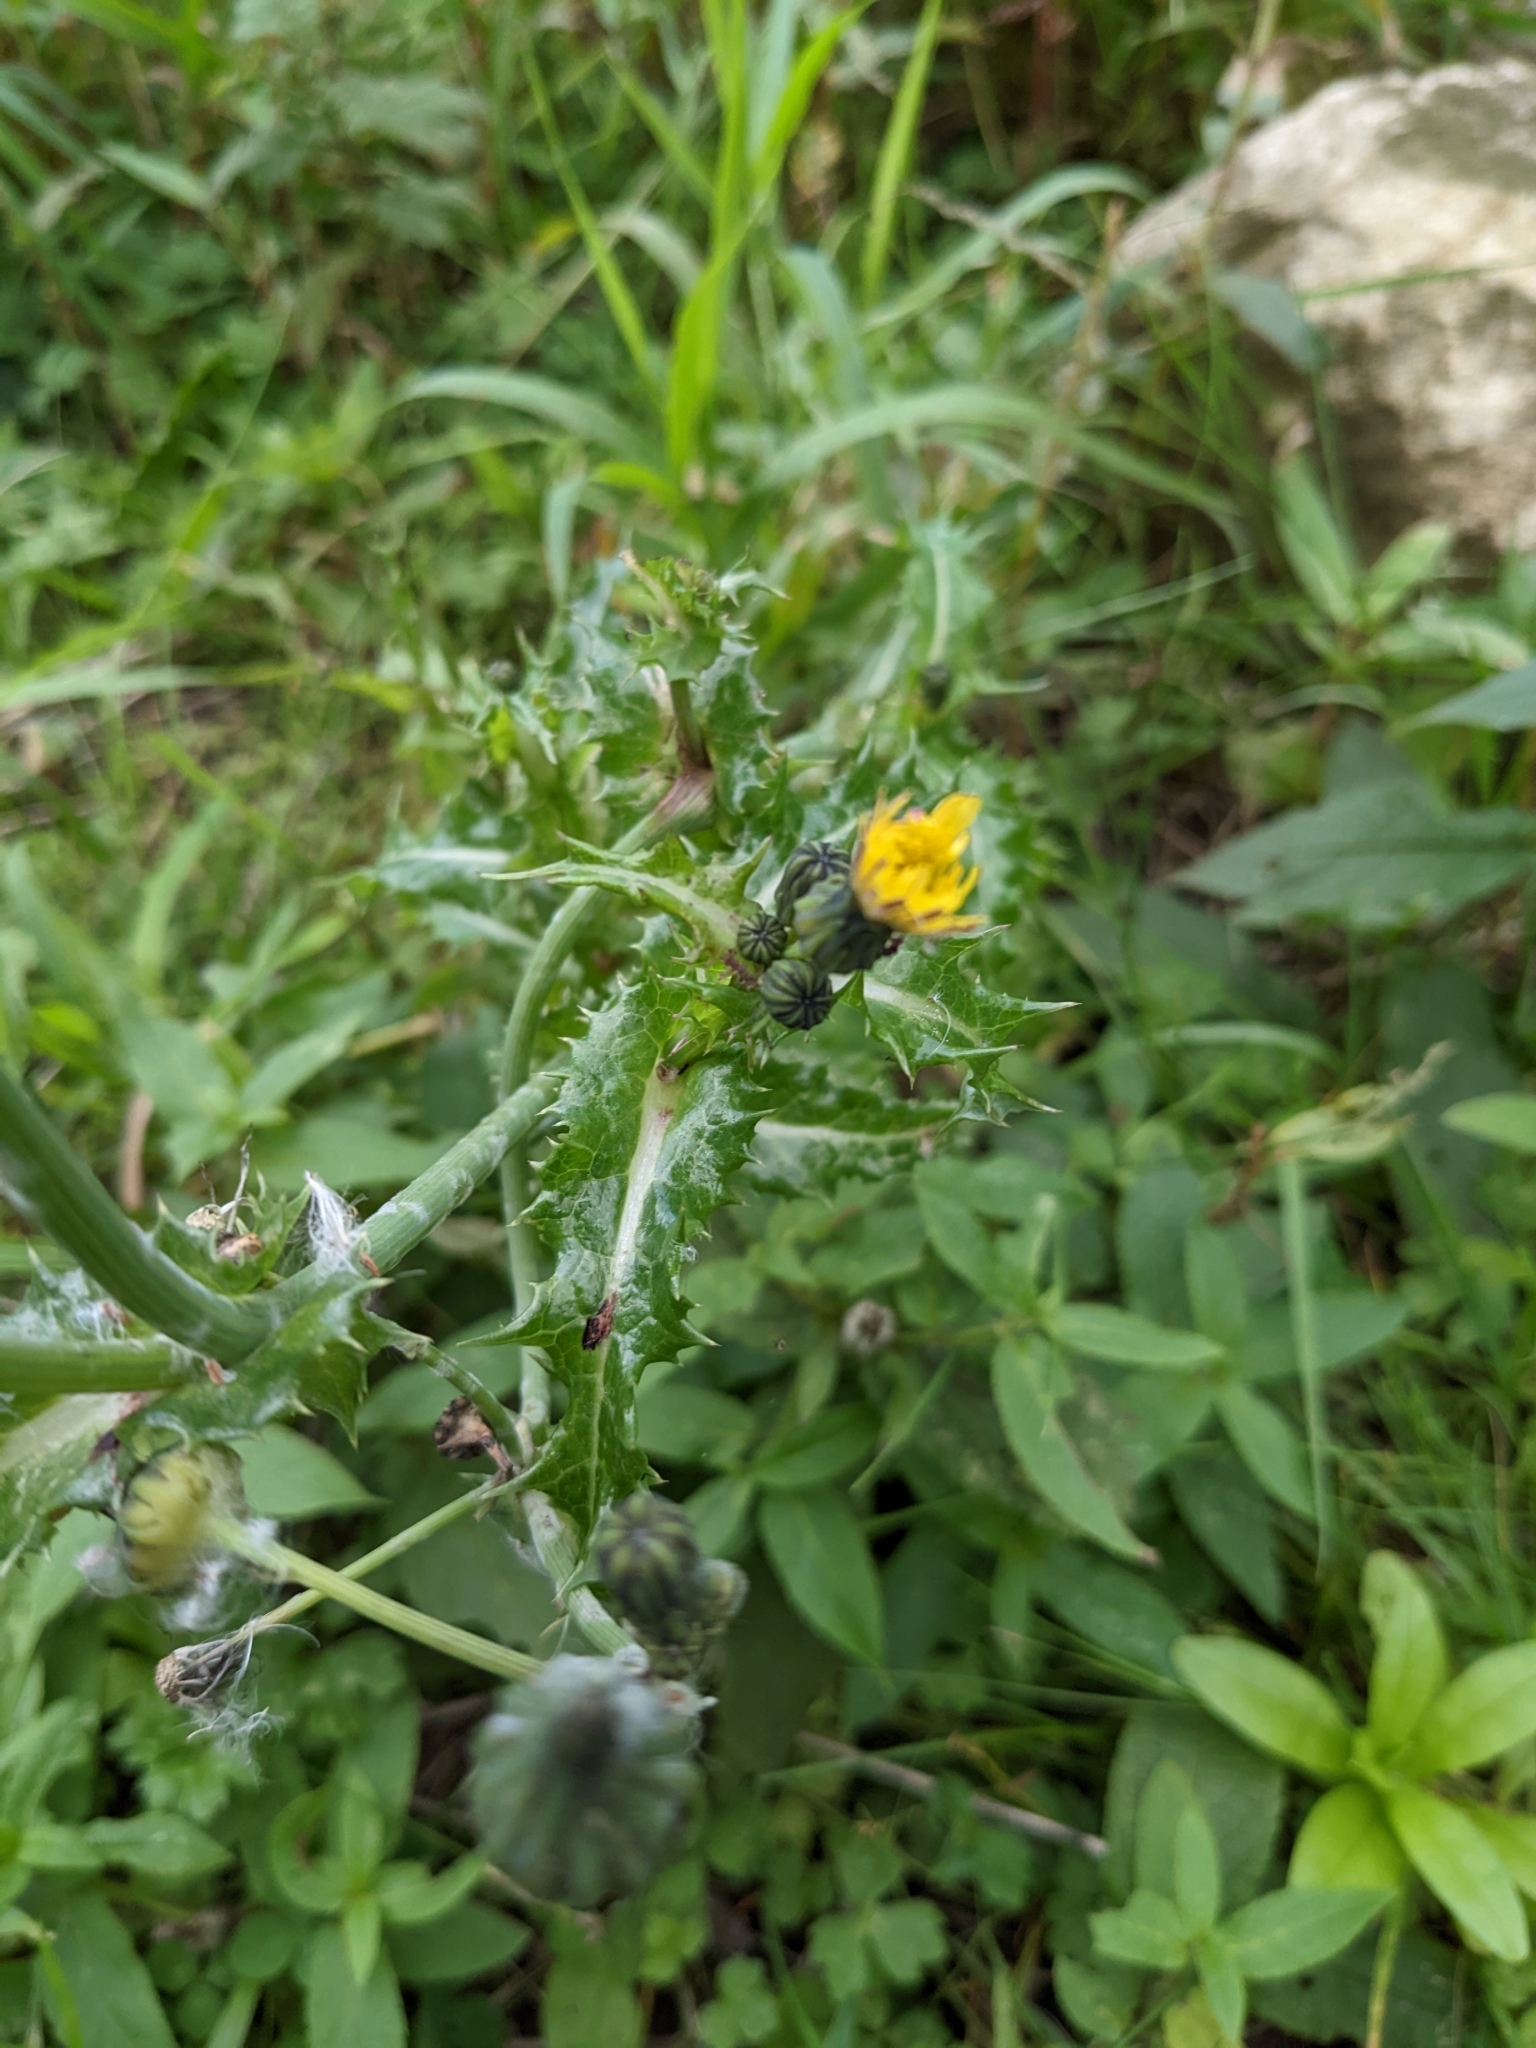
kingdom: Plantae
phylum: Tracheophyta
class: Magnoliopsida
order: Asterales
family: Asteraceae
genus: Sonchus
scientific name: Sonchus asper
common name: Prickly sow-thistle
